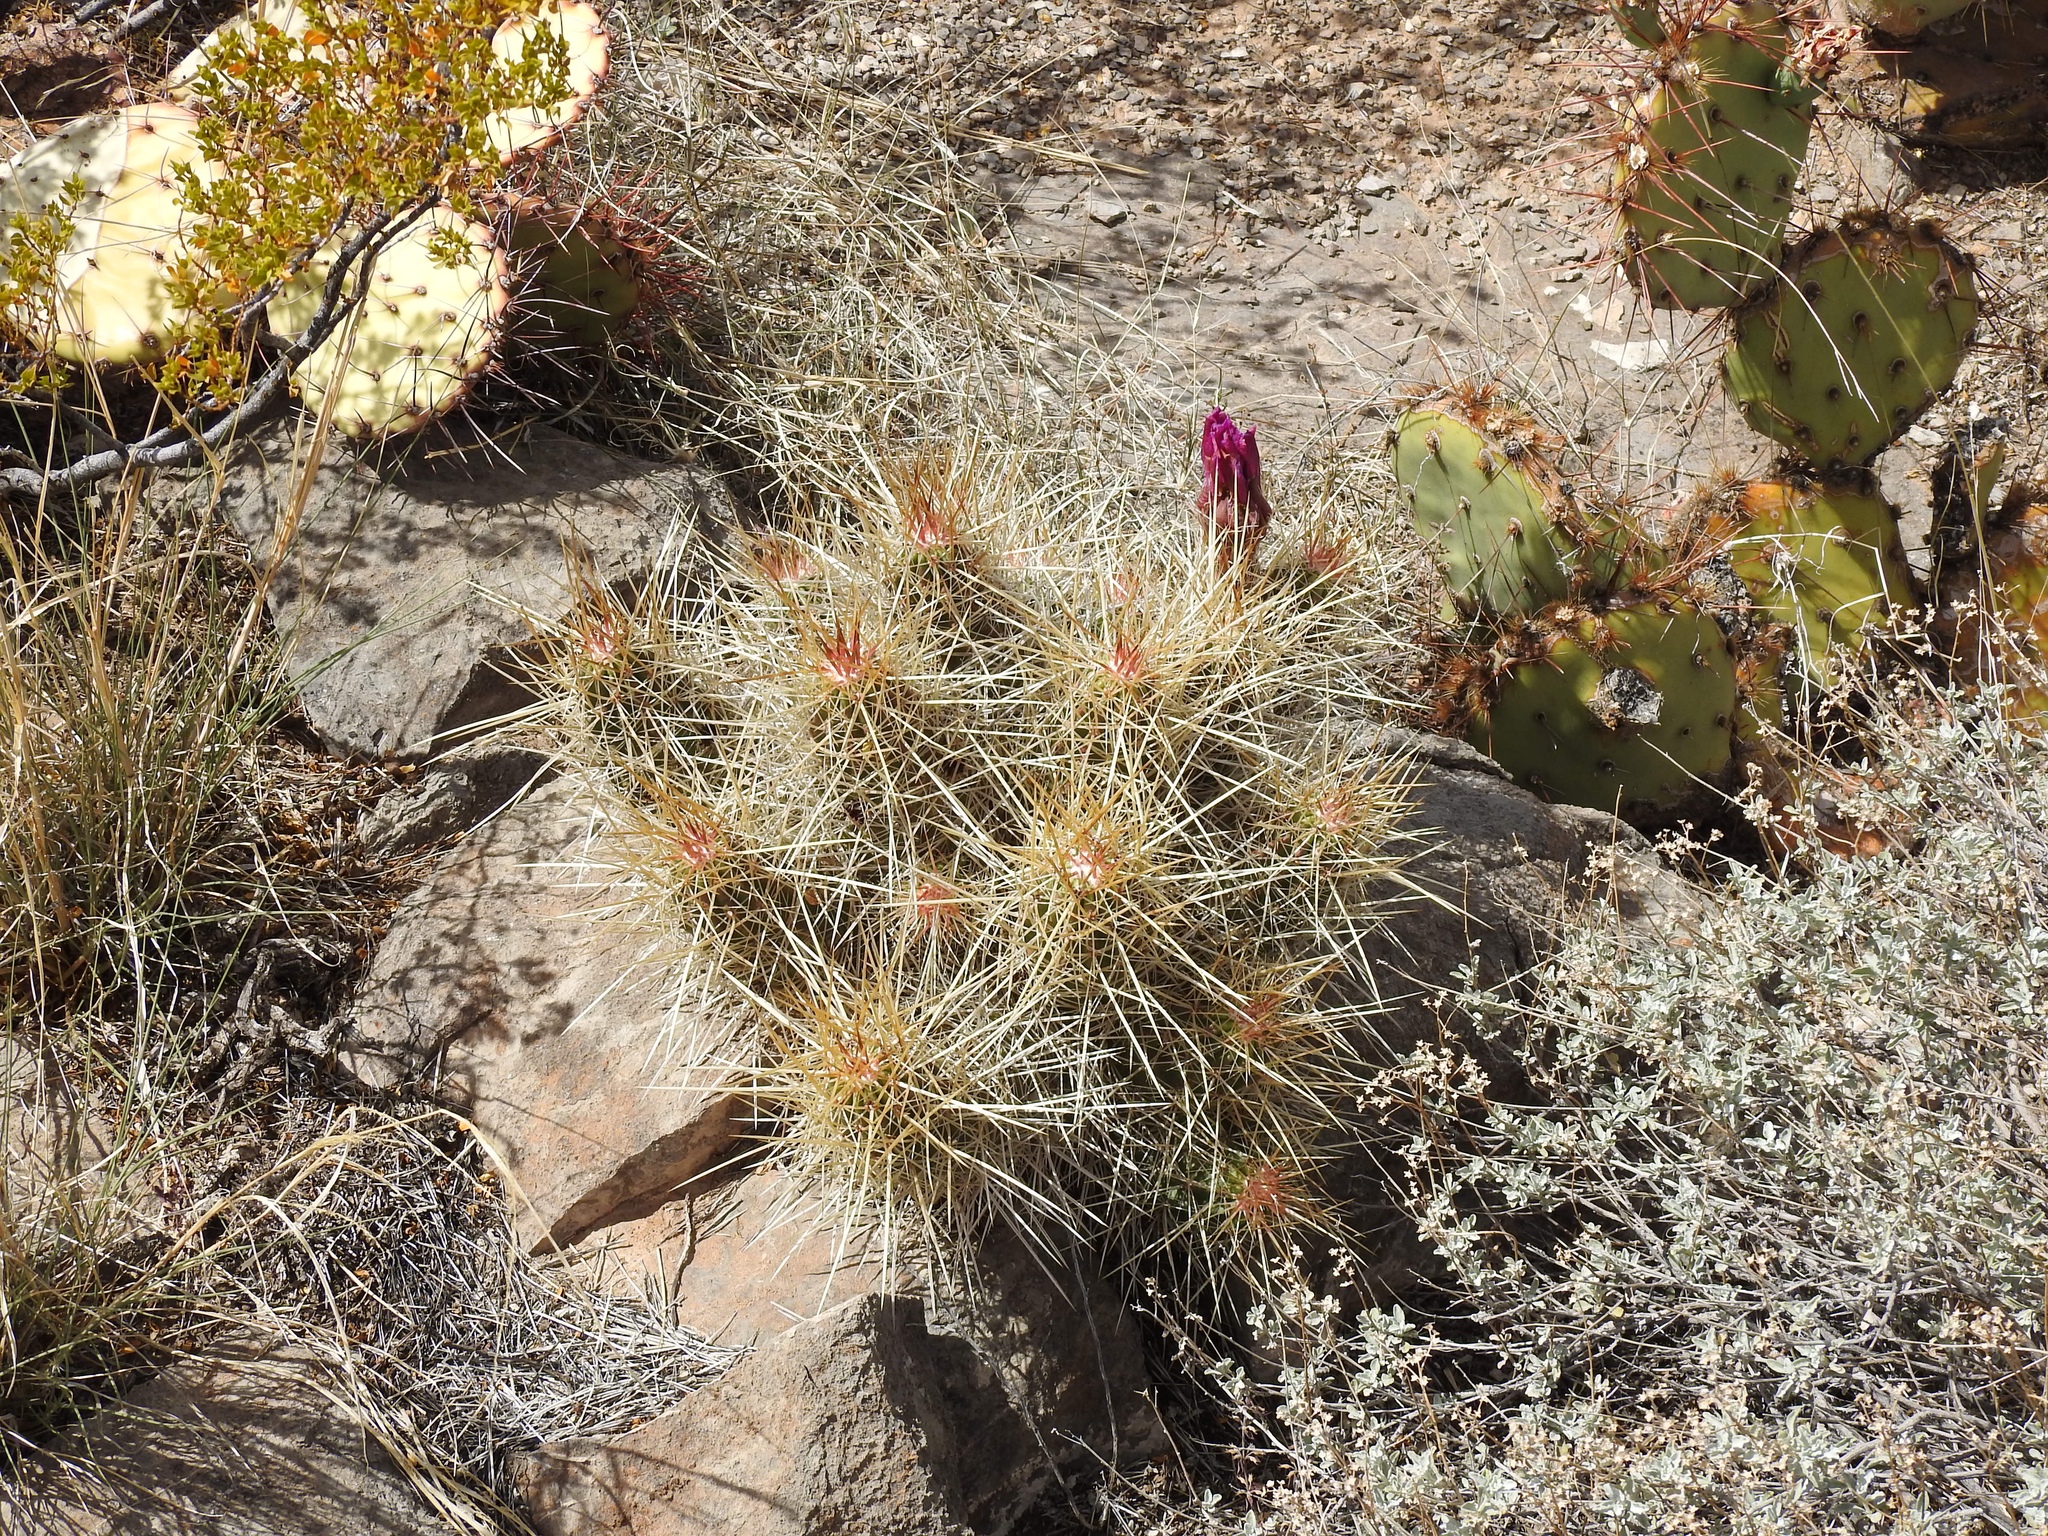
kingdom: Plantae
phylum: Tracheophyta
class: Magnoliopsida
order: Caryophyllales
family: Cactaceae
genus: Echinocereus
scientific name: Echinocereus stramineus
